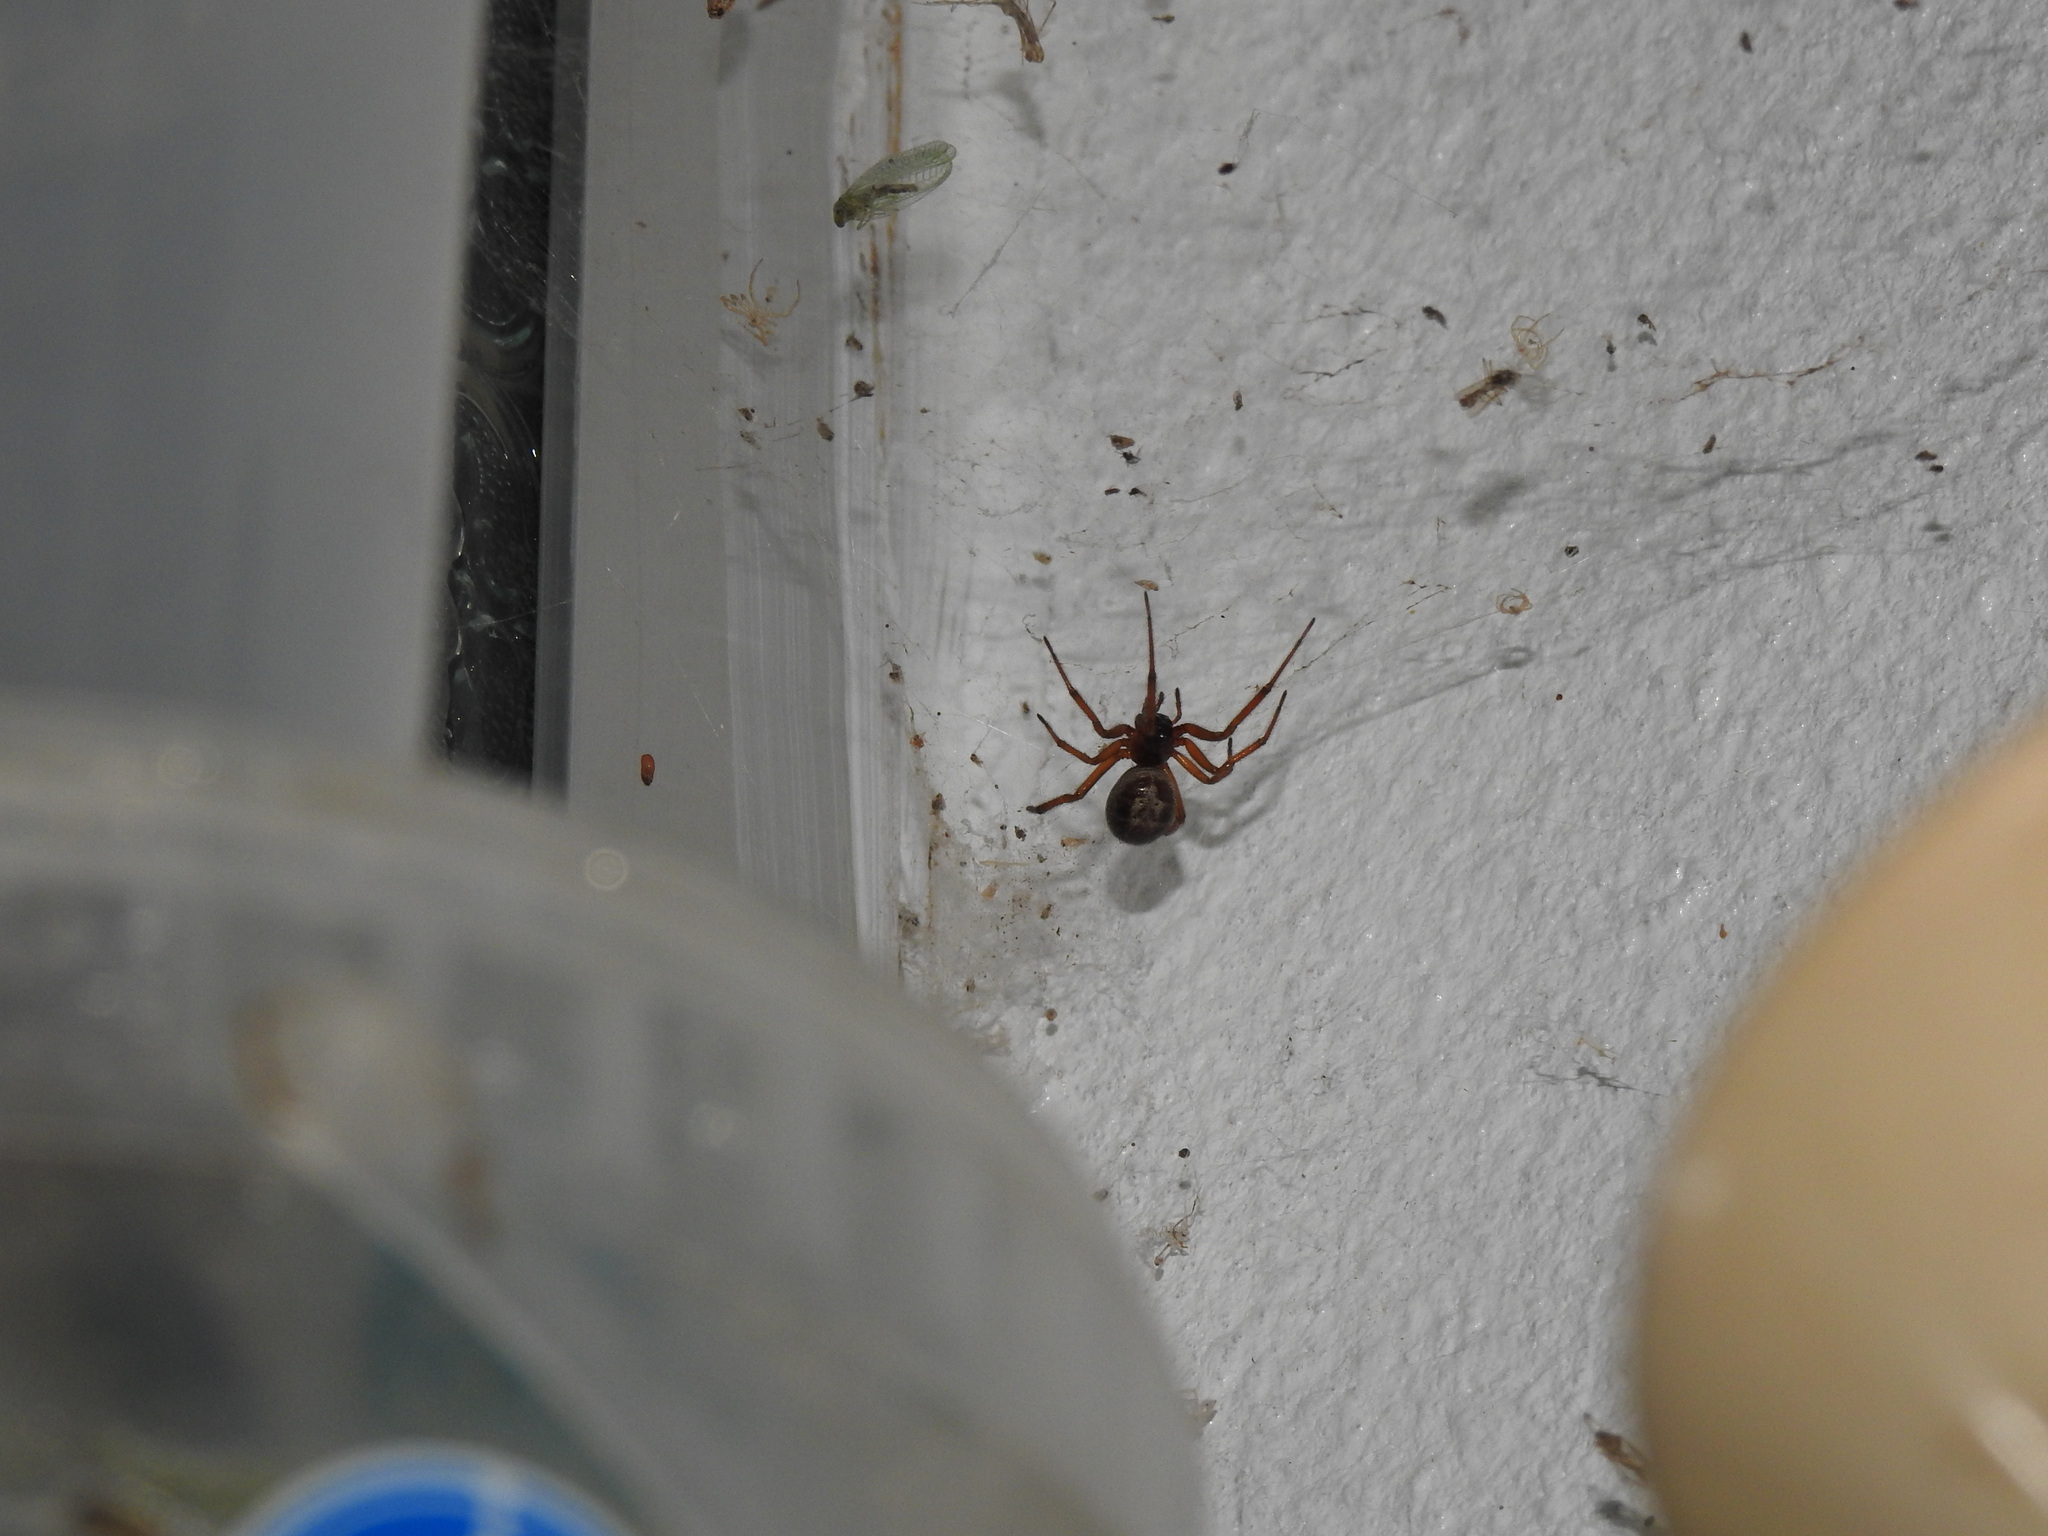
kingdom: Animalia
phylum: Arthropoda
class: Arachnida
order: Araneae
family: Theridiidae
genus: Steatoda
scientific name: Steatoda nobilis
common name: Cobweb weaver
